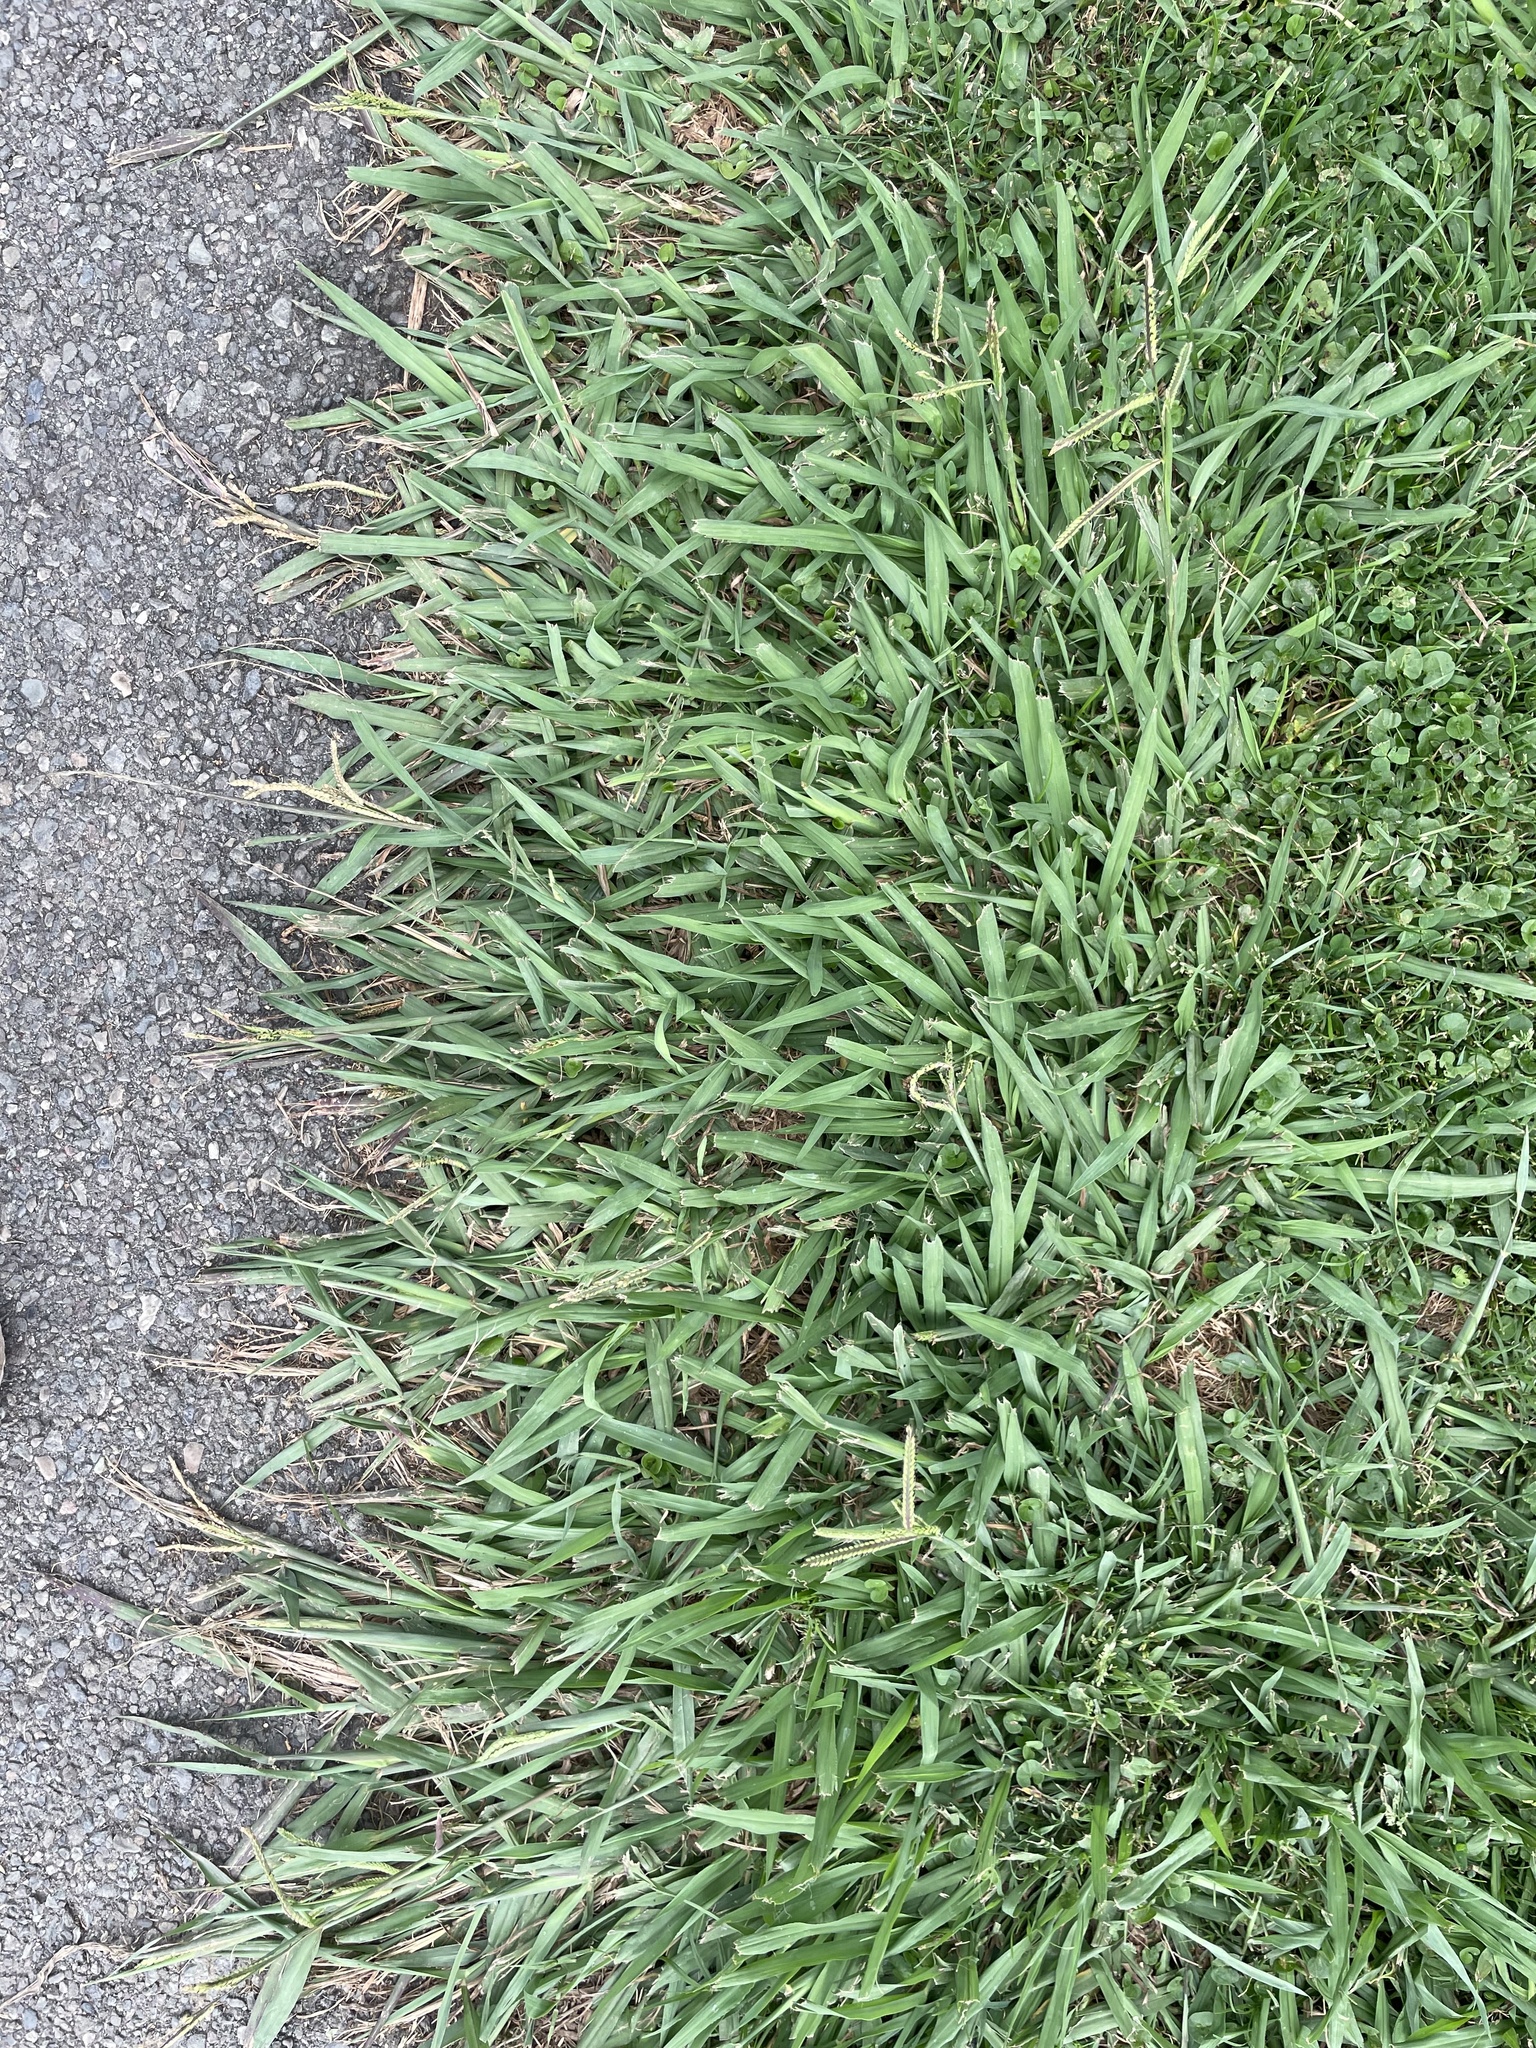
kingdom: Plantae
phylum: Tracheophyta
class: Liliopsida
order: Poales
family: Poaceae
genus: Paspalum
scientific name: Paspalum dilatatum
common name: Dallisgrass
